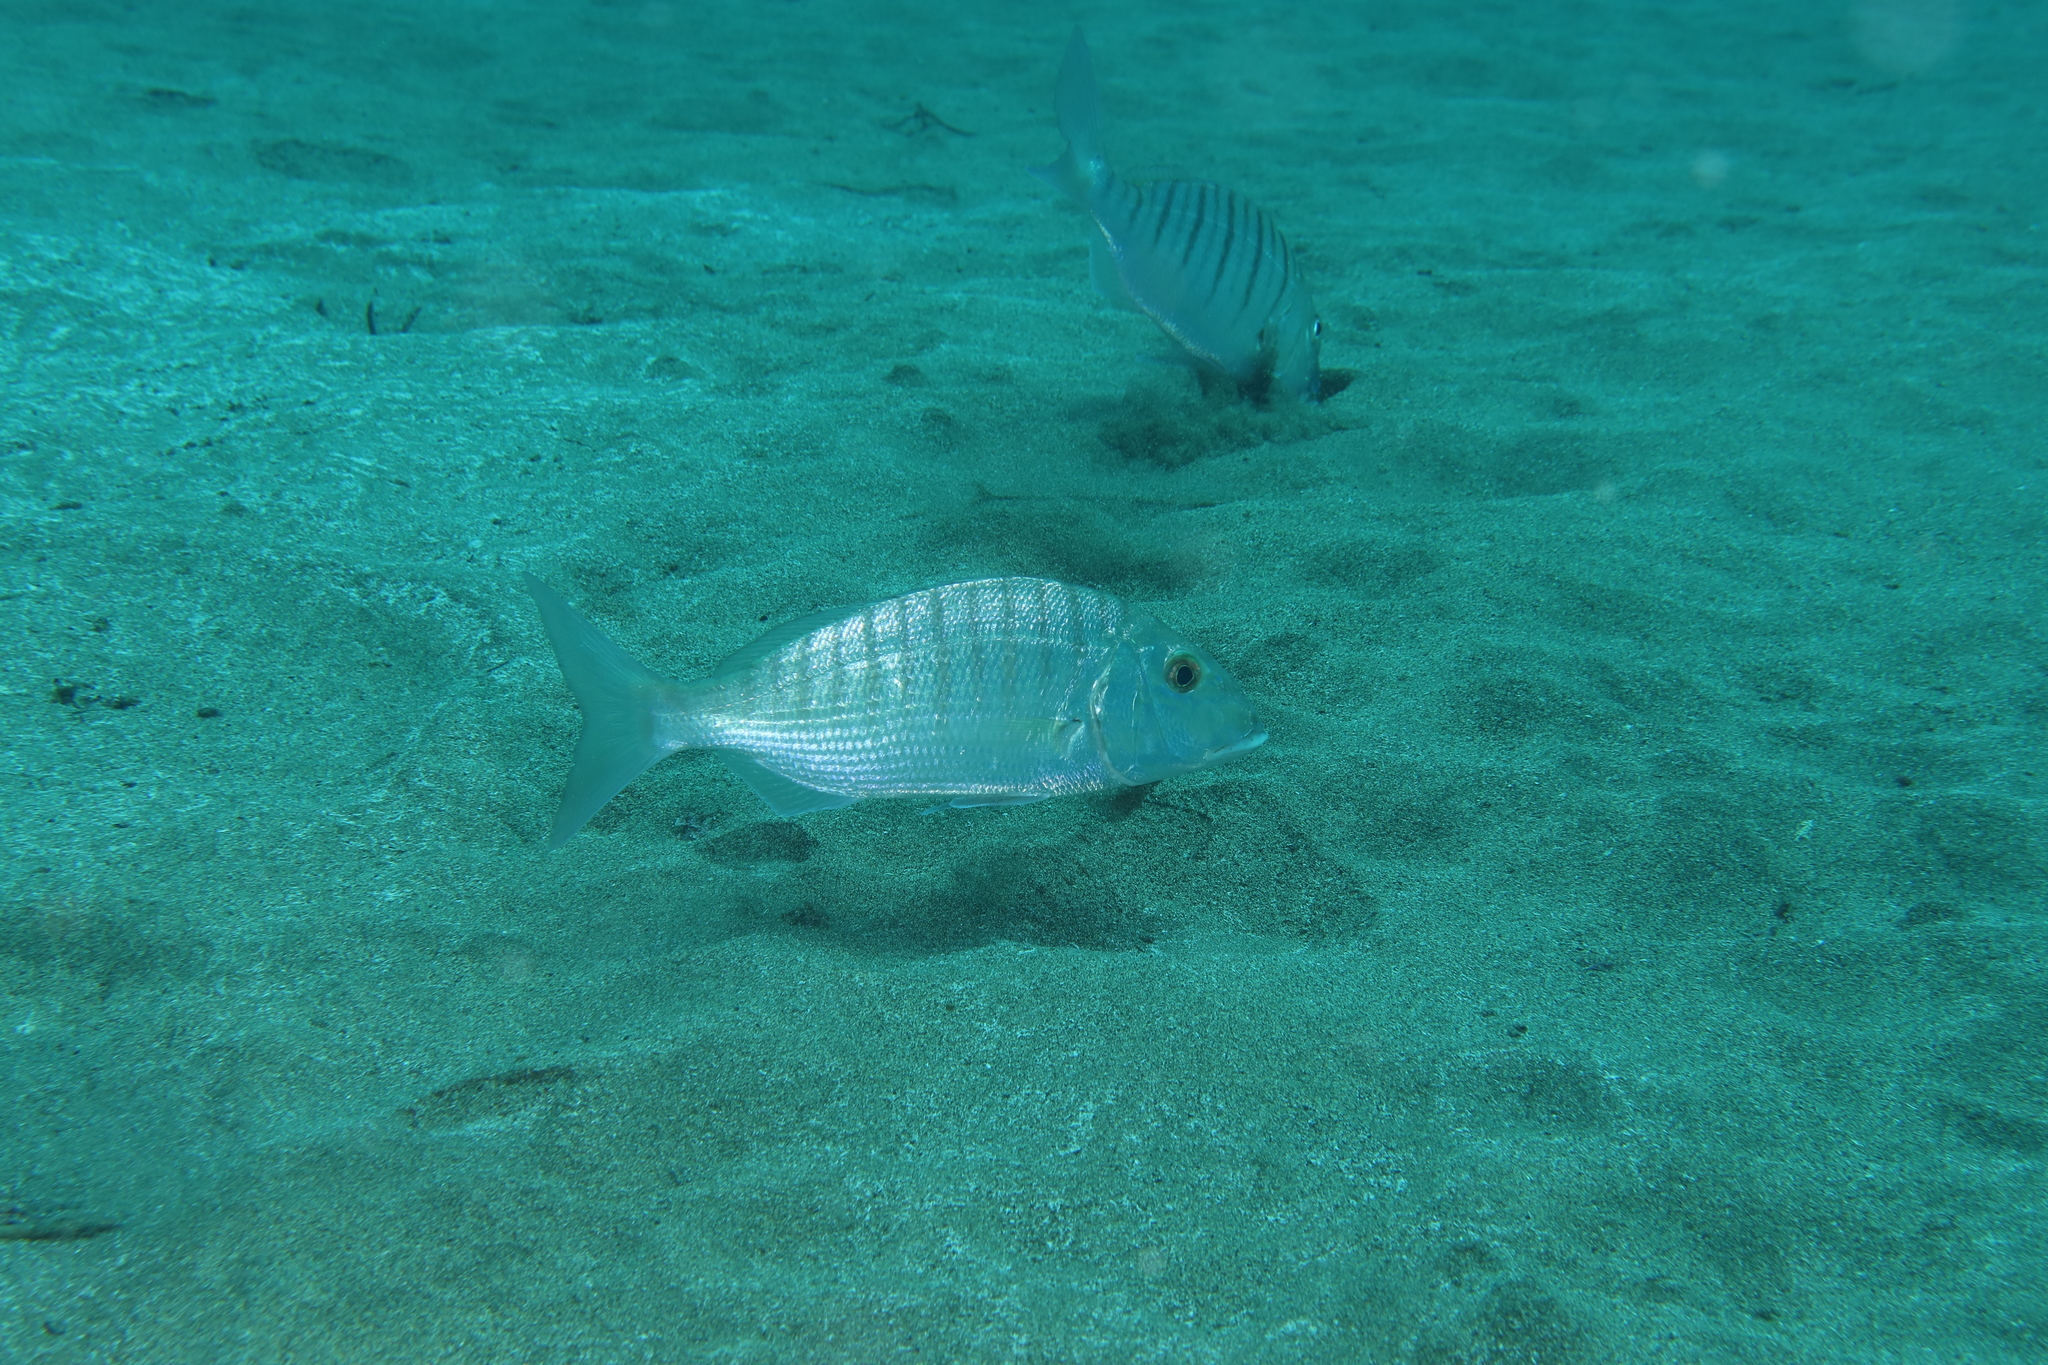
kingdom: Animalia
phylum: Chordata
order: Perciformes
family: Sparidae
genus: Lithognathus
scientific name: Lithognathus mormyrus
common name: Sand steenbras
